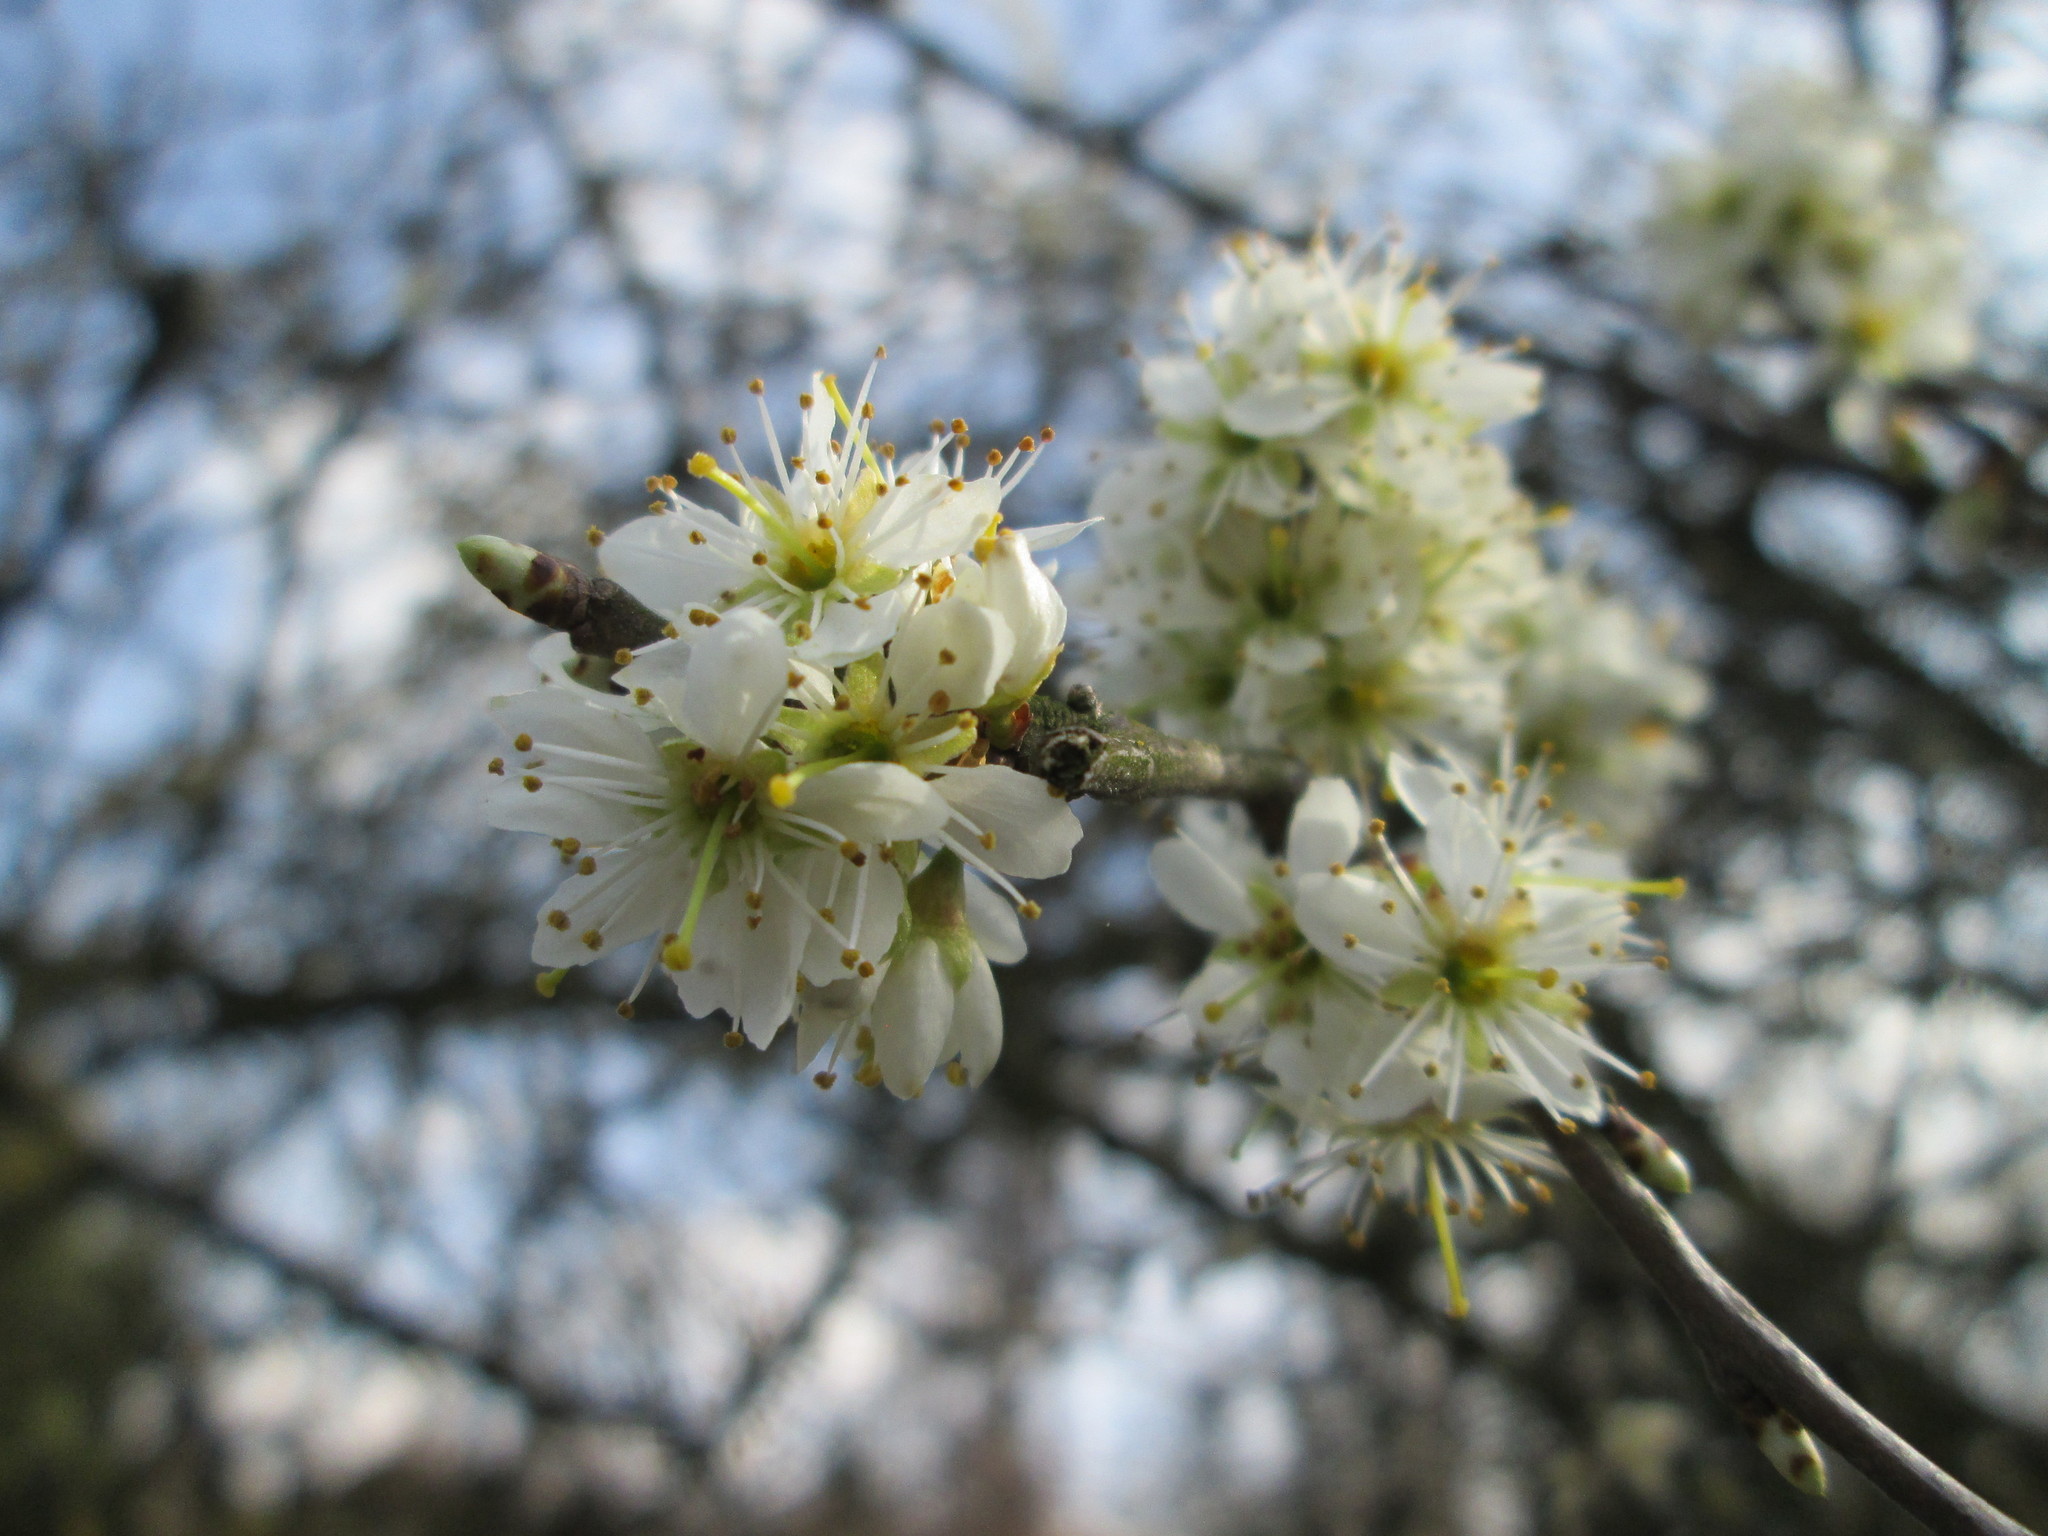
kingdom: Plantae
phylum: Tracheophyta
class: Magnoliopsida
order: Rosales
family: Rosaceae
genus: Prunus
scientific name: Prunus spinosa
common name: Blackthorn
